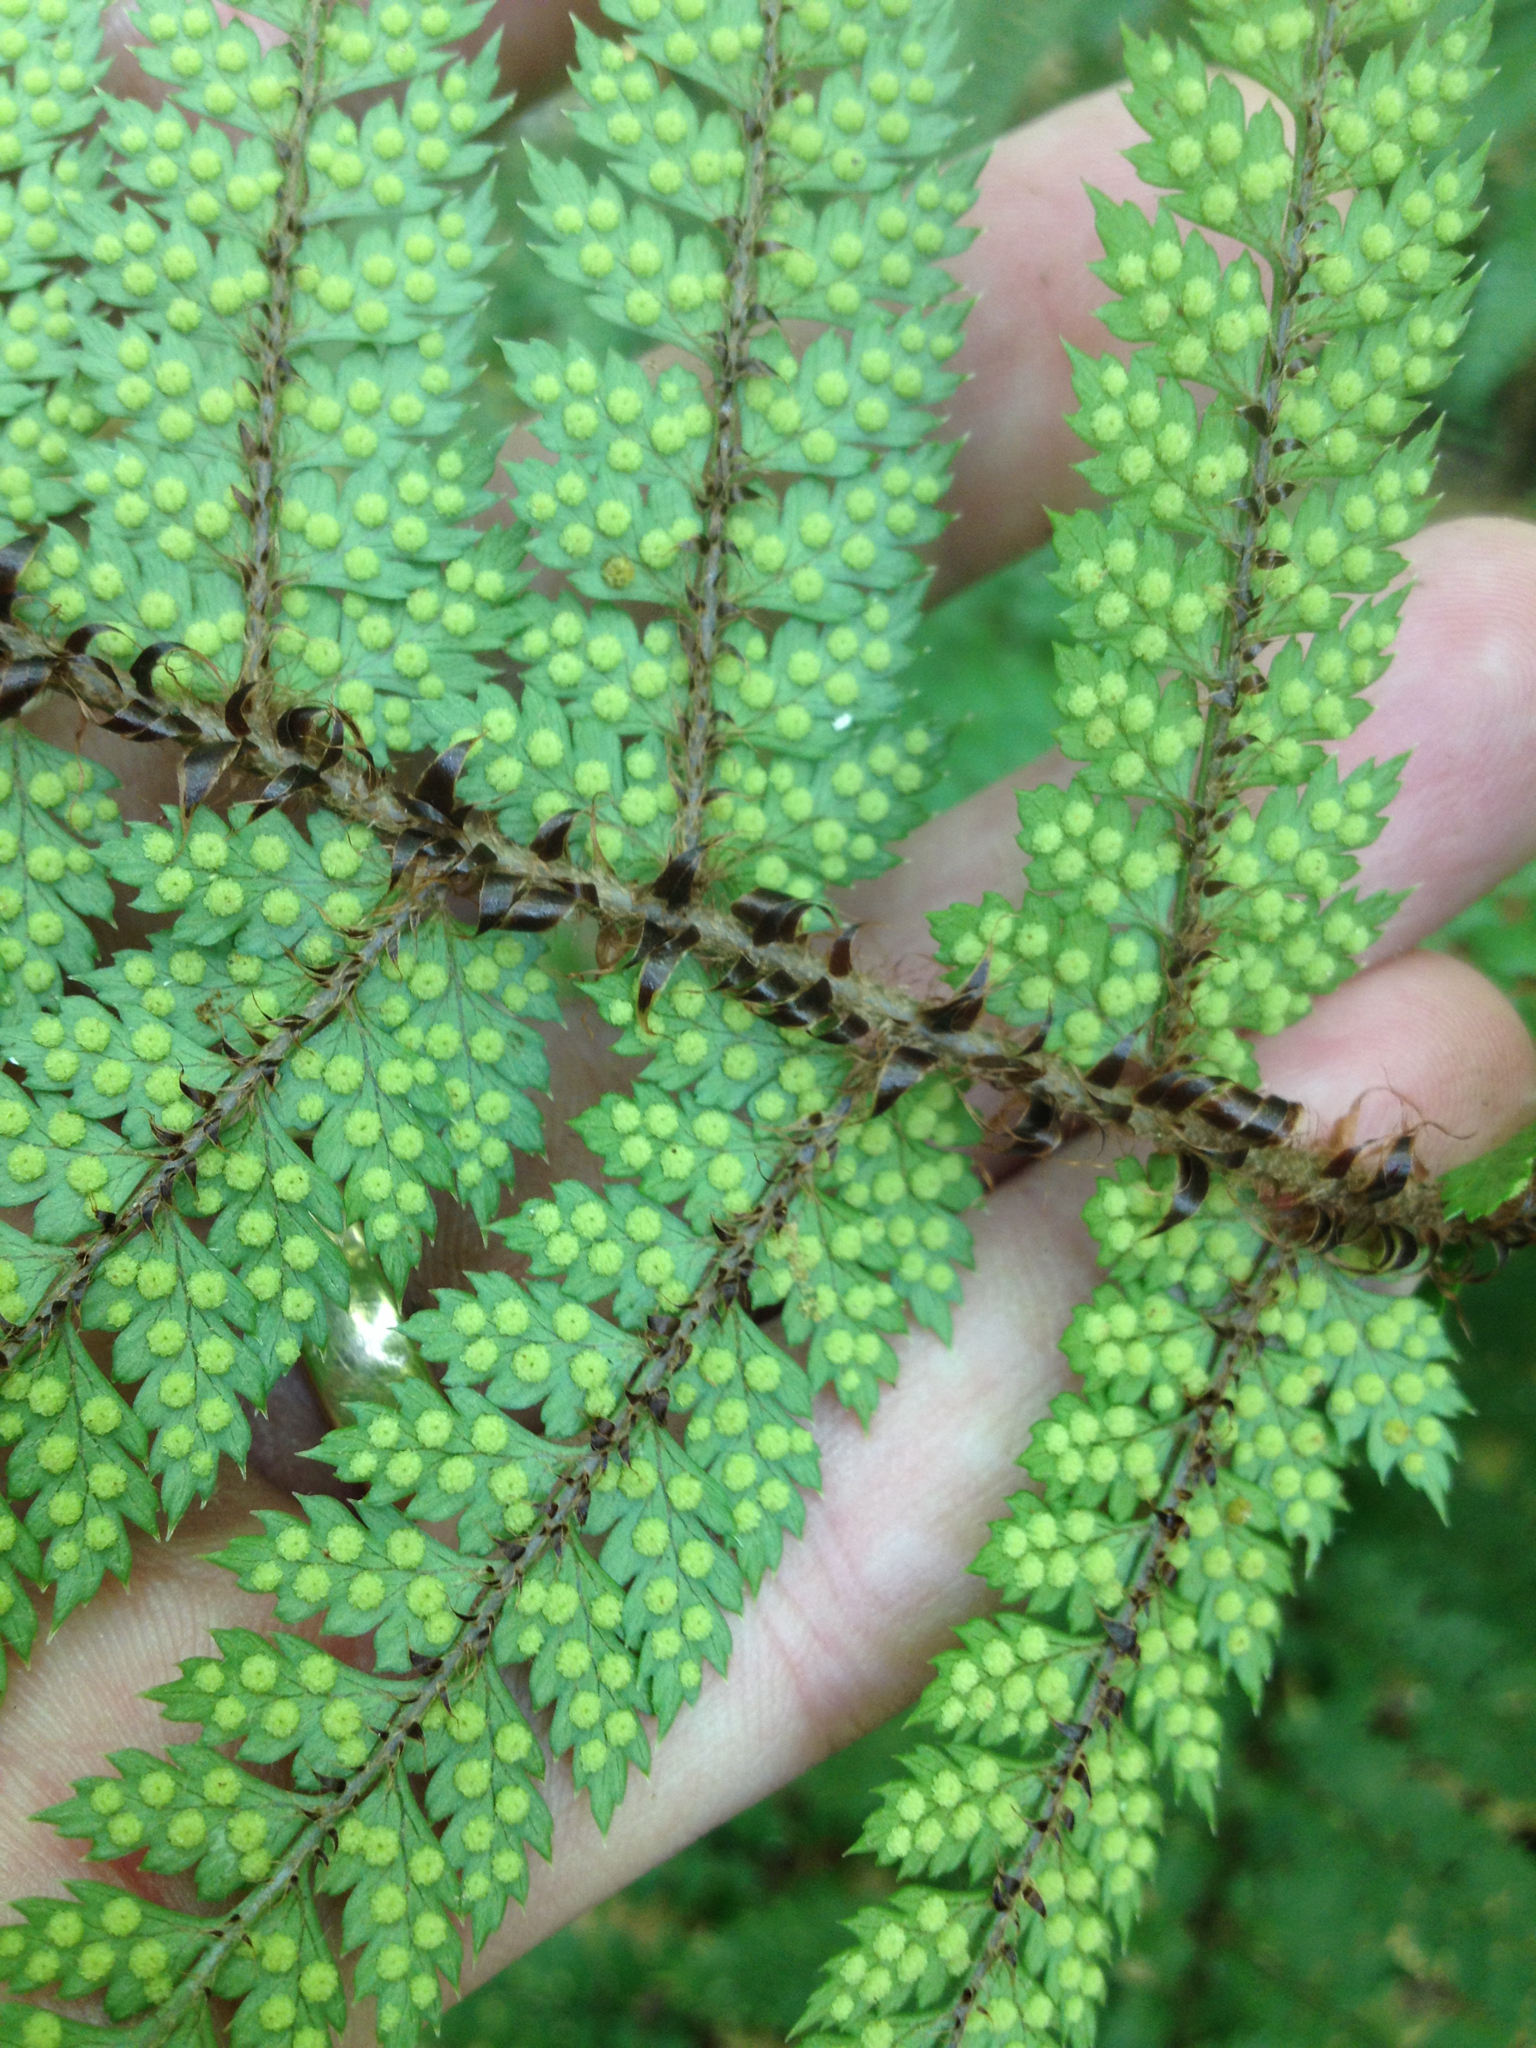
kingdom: Plantae
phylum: Tracheophyta
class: Polypodiopsida
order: Polypodiales
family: Dryopteridaceae
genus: Polystichum
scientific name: Polystichum vestitum
